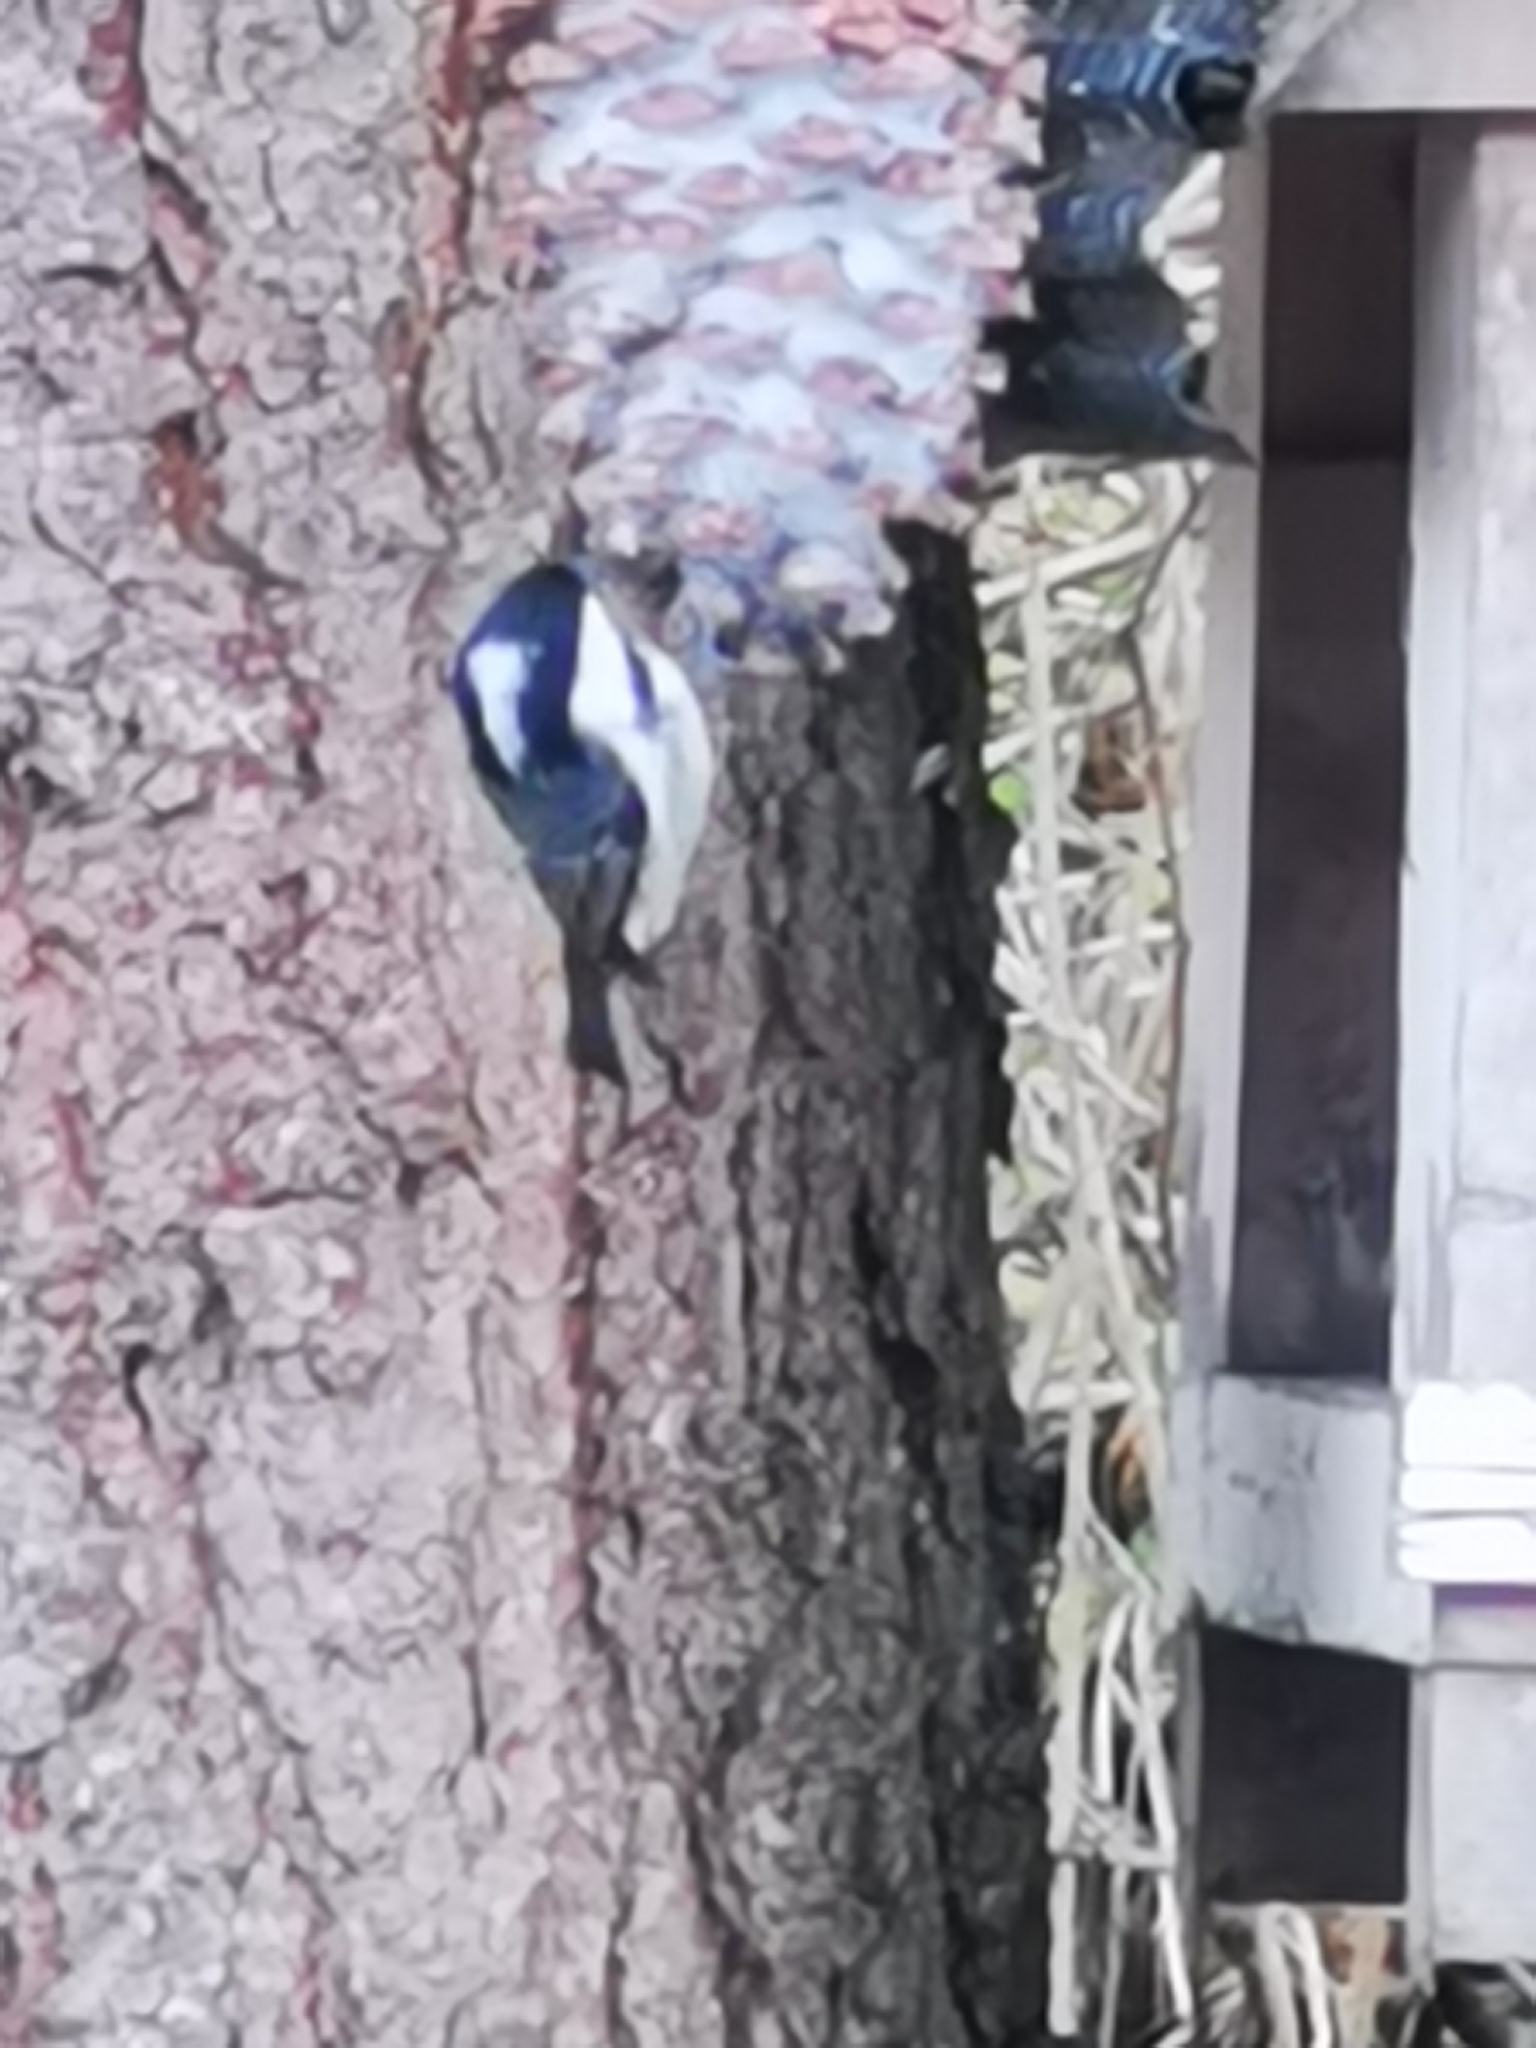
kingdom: Animalia
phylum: Chordata
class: Aves
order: Passeriformes
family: Paridae
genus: Poecile
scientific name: Poecile montanus
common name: Willow tit
